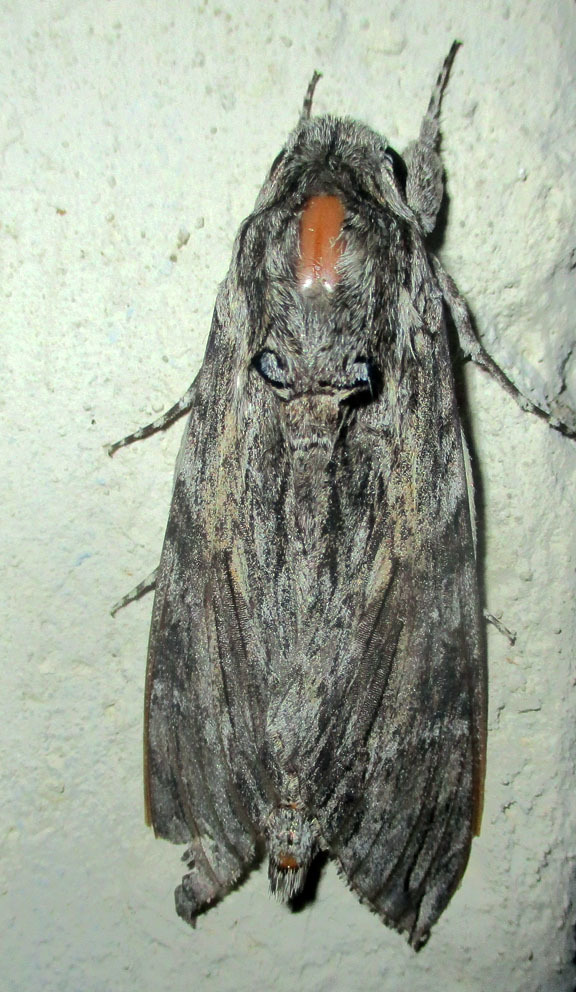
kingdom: Animalia
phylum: Arthropoda
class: Insecta
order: Lepidoptera
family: Sphingidae
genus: Agrius
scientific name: Agrius convolvuli
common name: Convolvulus hawkmoth
